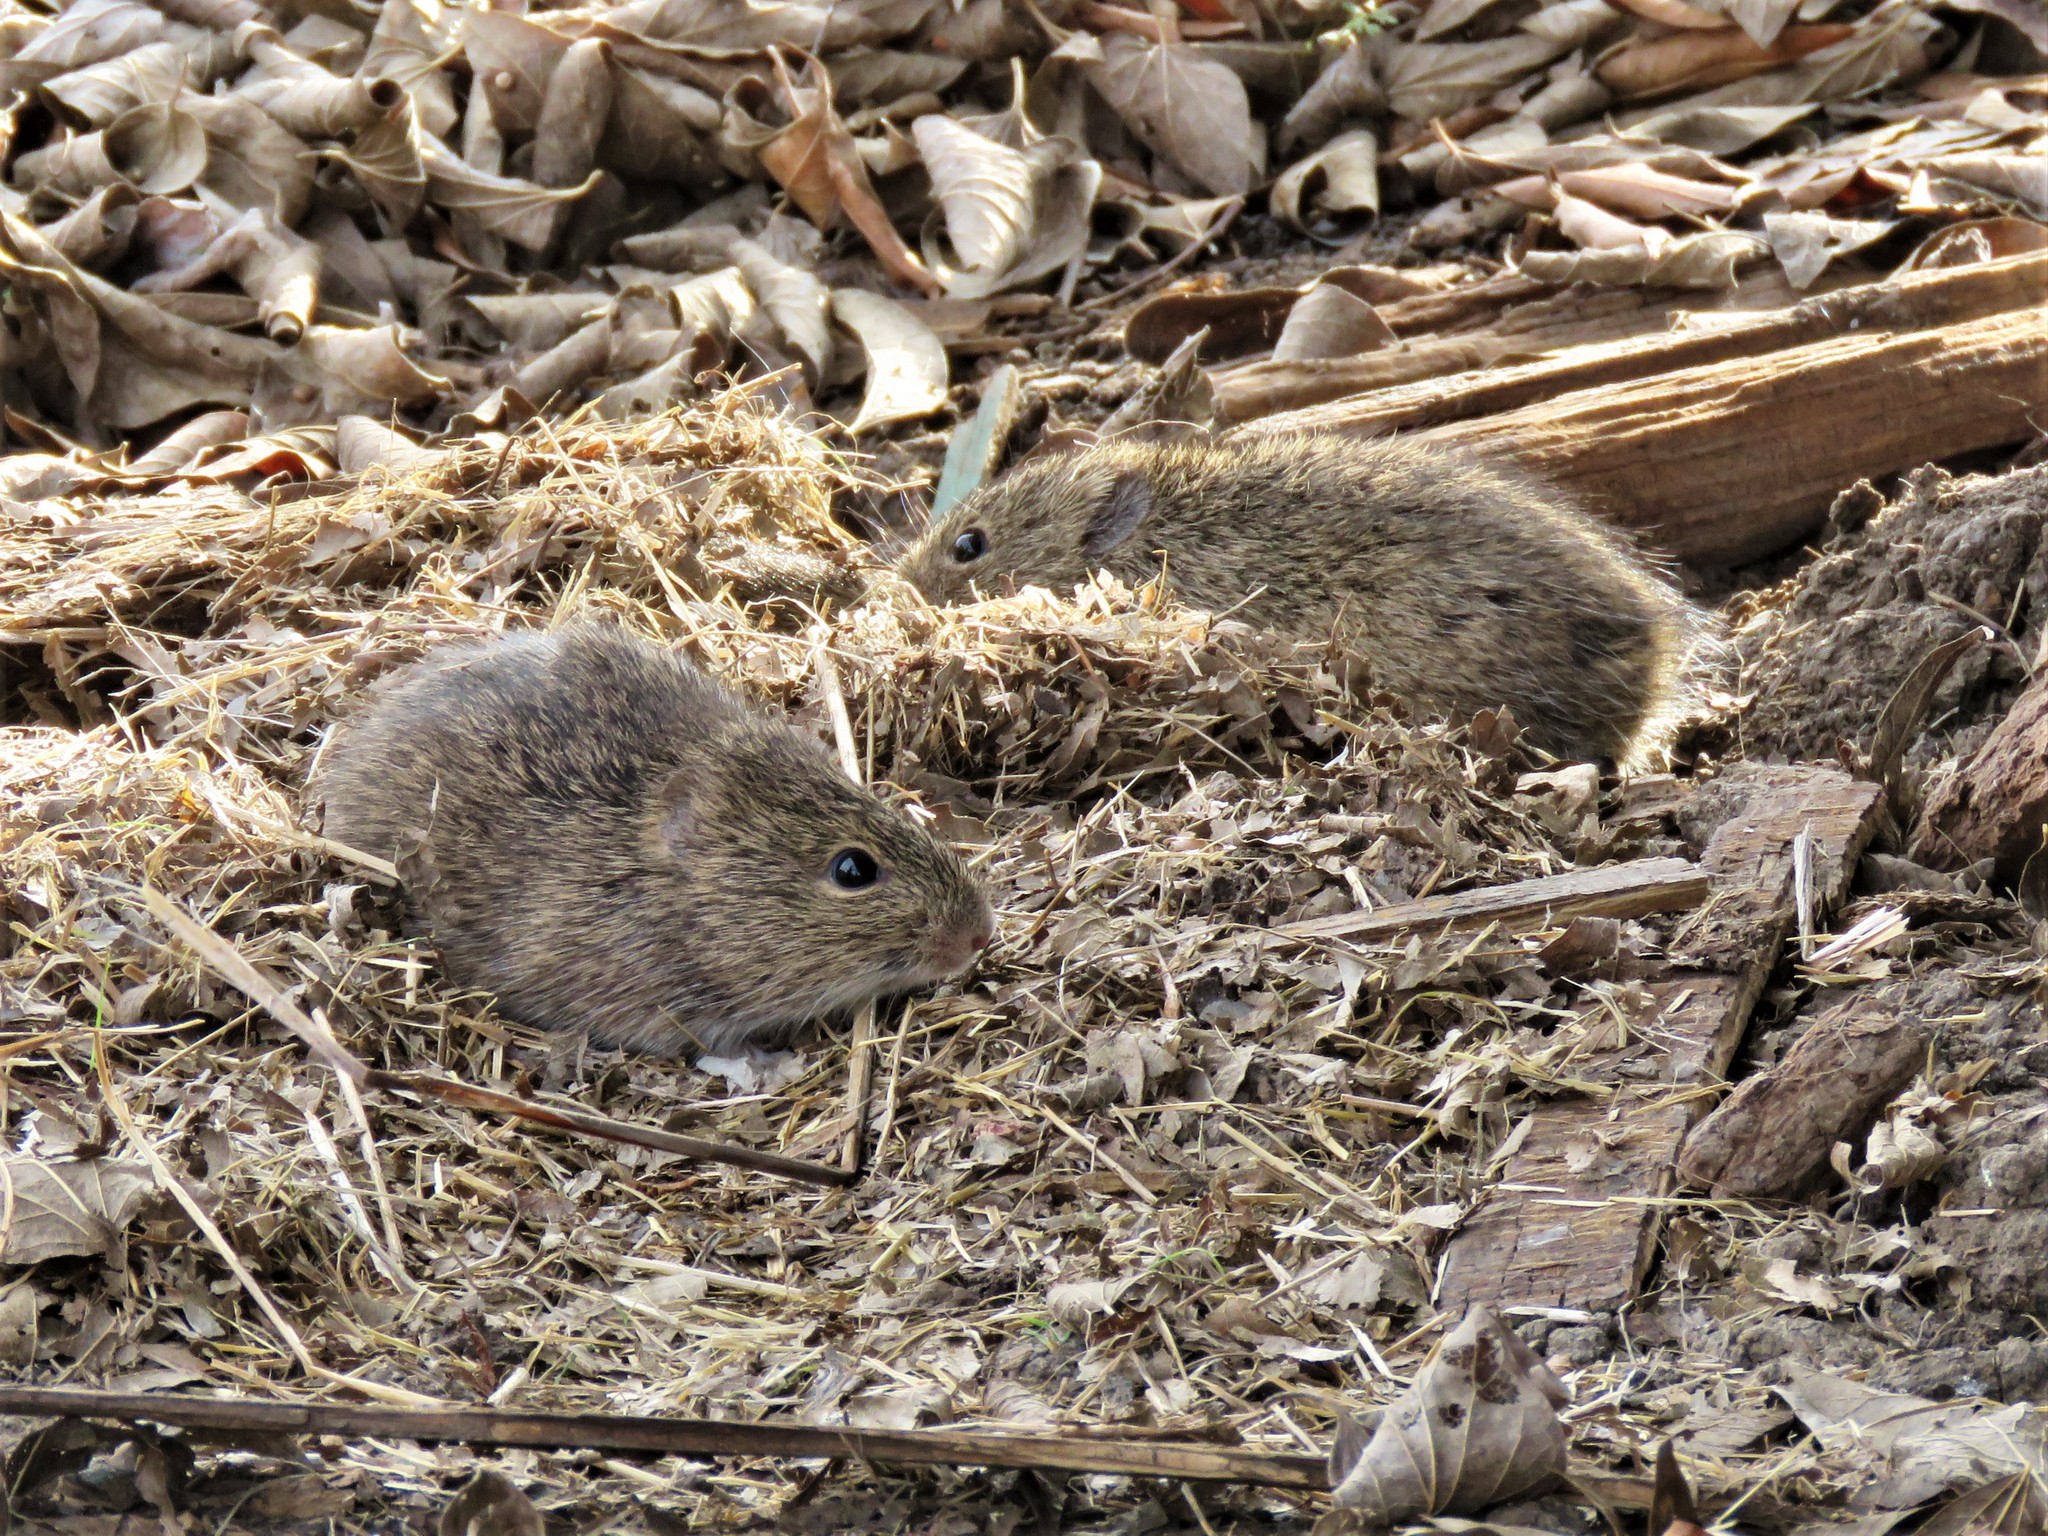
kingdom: Animalia
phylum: Chordata
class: Mammalia
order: Rodentia
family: Cricetidae
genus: Sigmodon
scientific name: Sigmodon hispidus
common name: Hispid cotton rat
